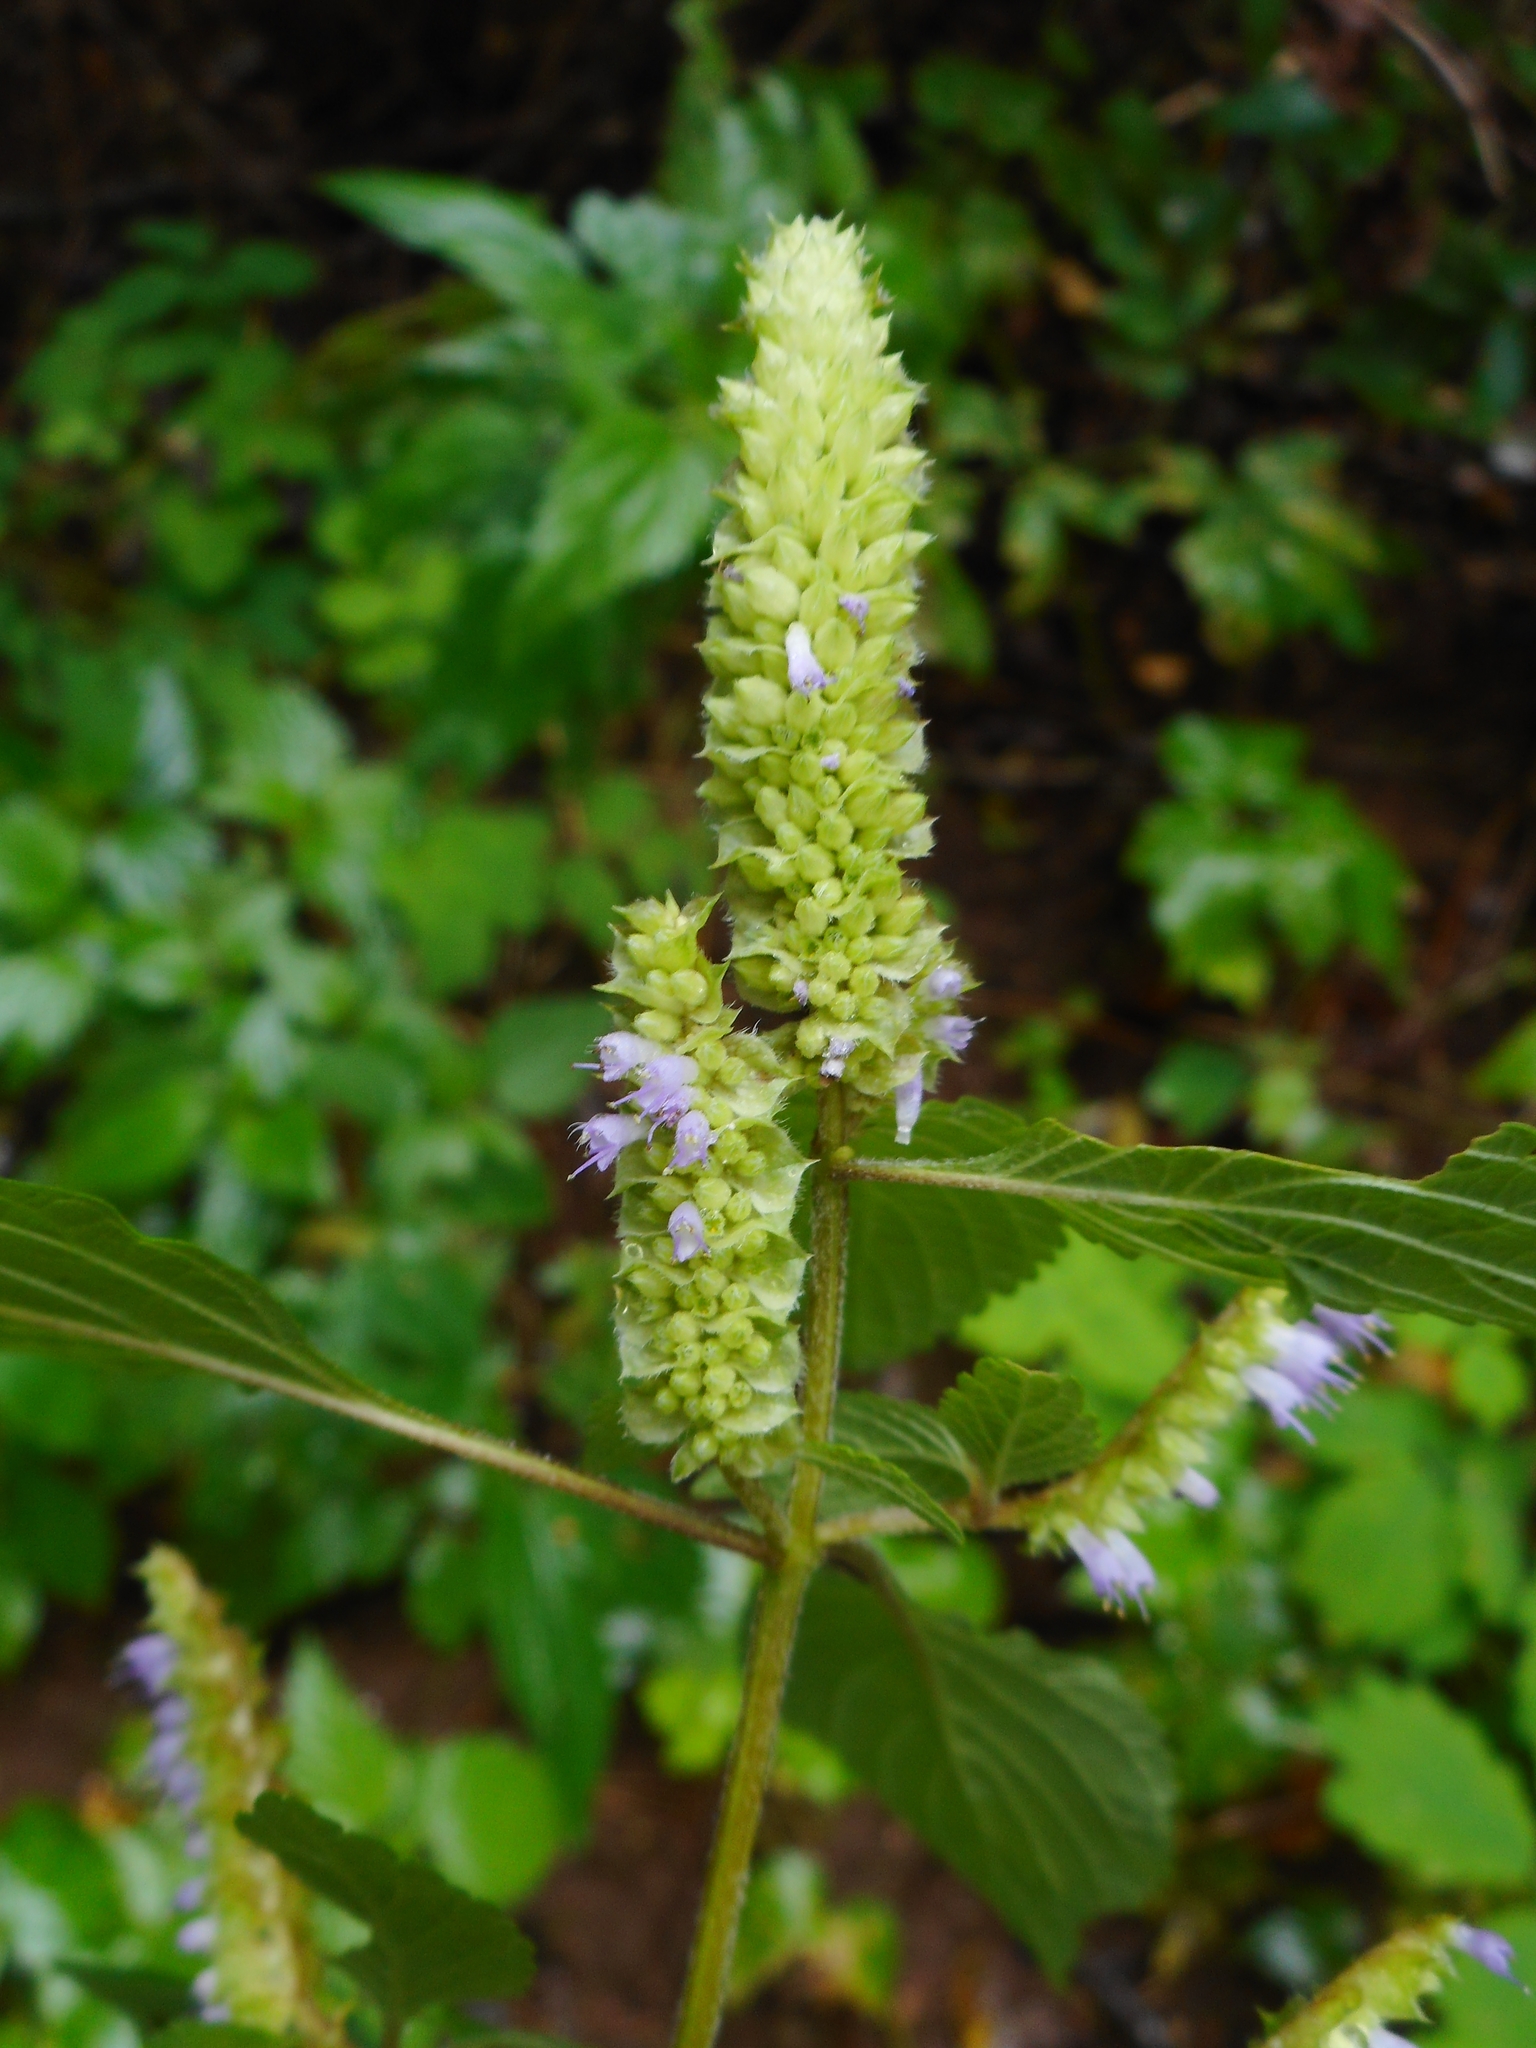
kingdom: Plantae
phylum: Tracheophyta
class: Magnoliopsida
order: Lamiales
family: Lamiaceae
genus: Elsholtzia
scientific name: Elsholtzia ciliata
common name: Ciliate elsholtzia
